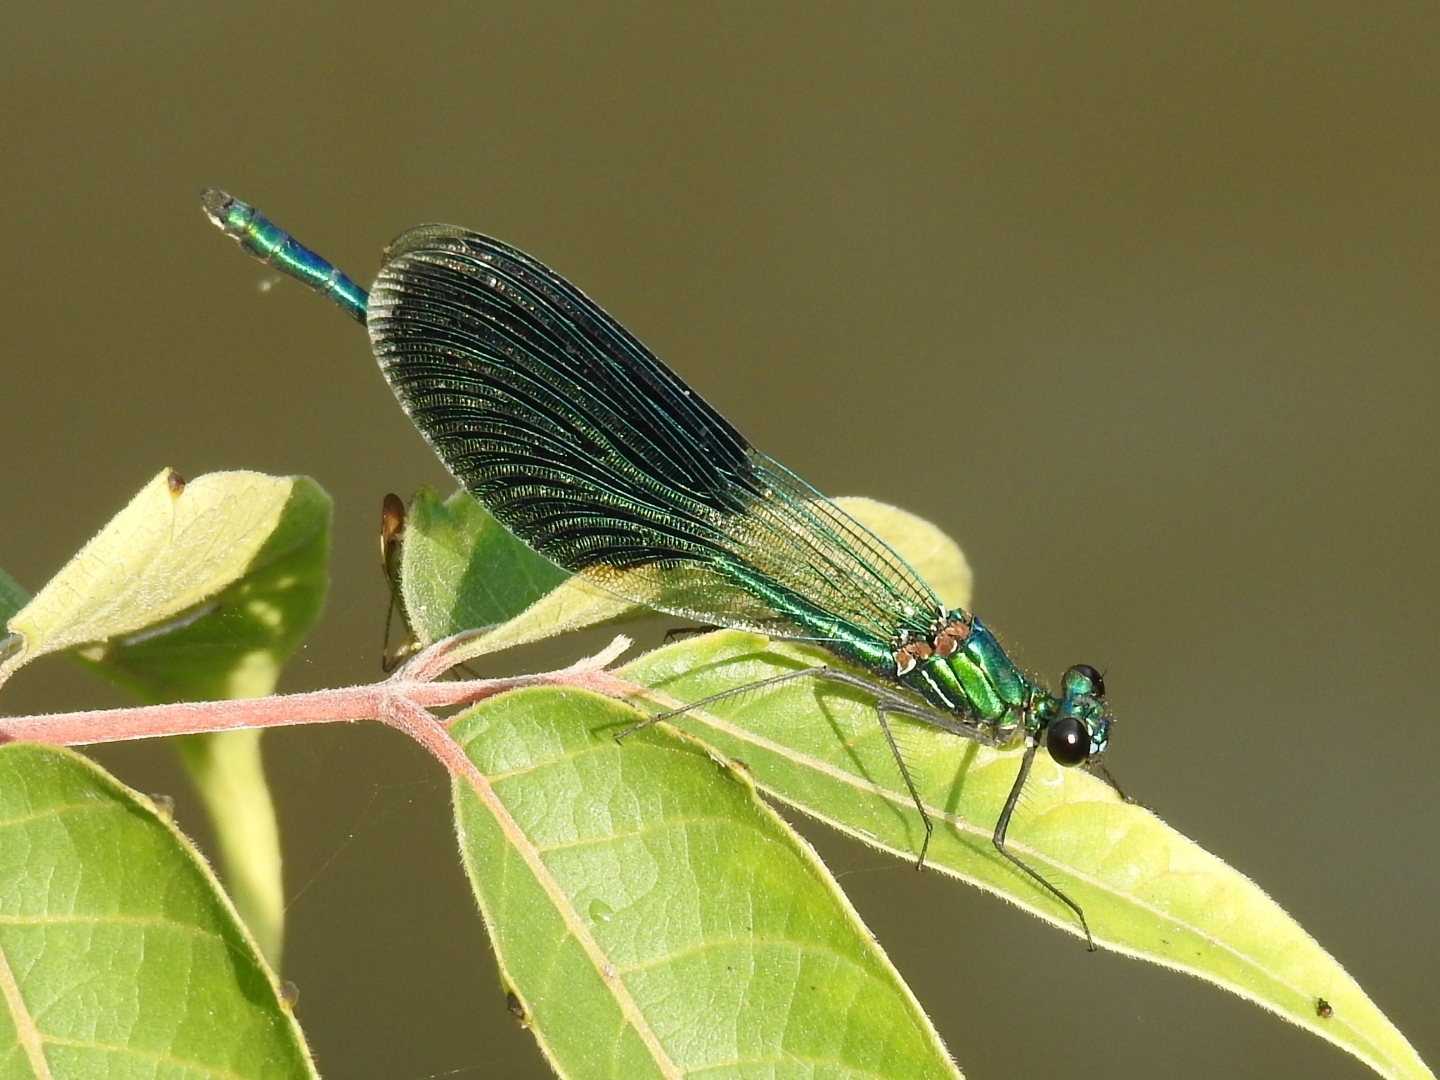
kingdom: Animalia
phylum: Arthropoda
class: Insecta
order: Odonata
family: Calopterygidae
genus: Calopteryx
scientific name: Calopteryx splendens
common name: Banded demoiselle
